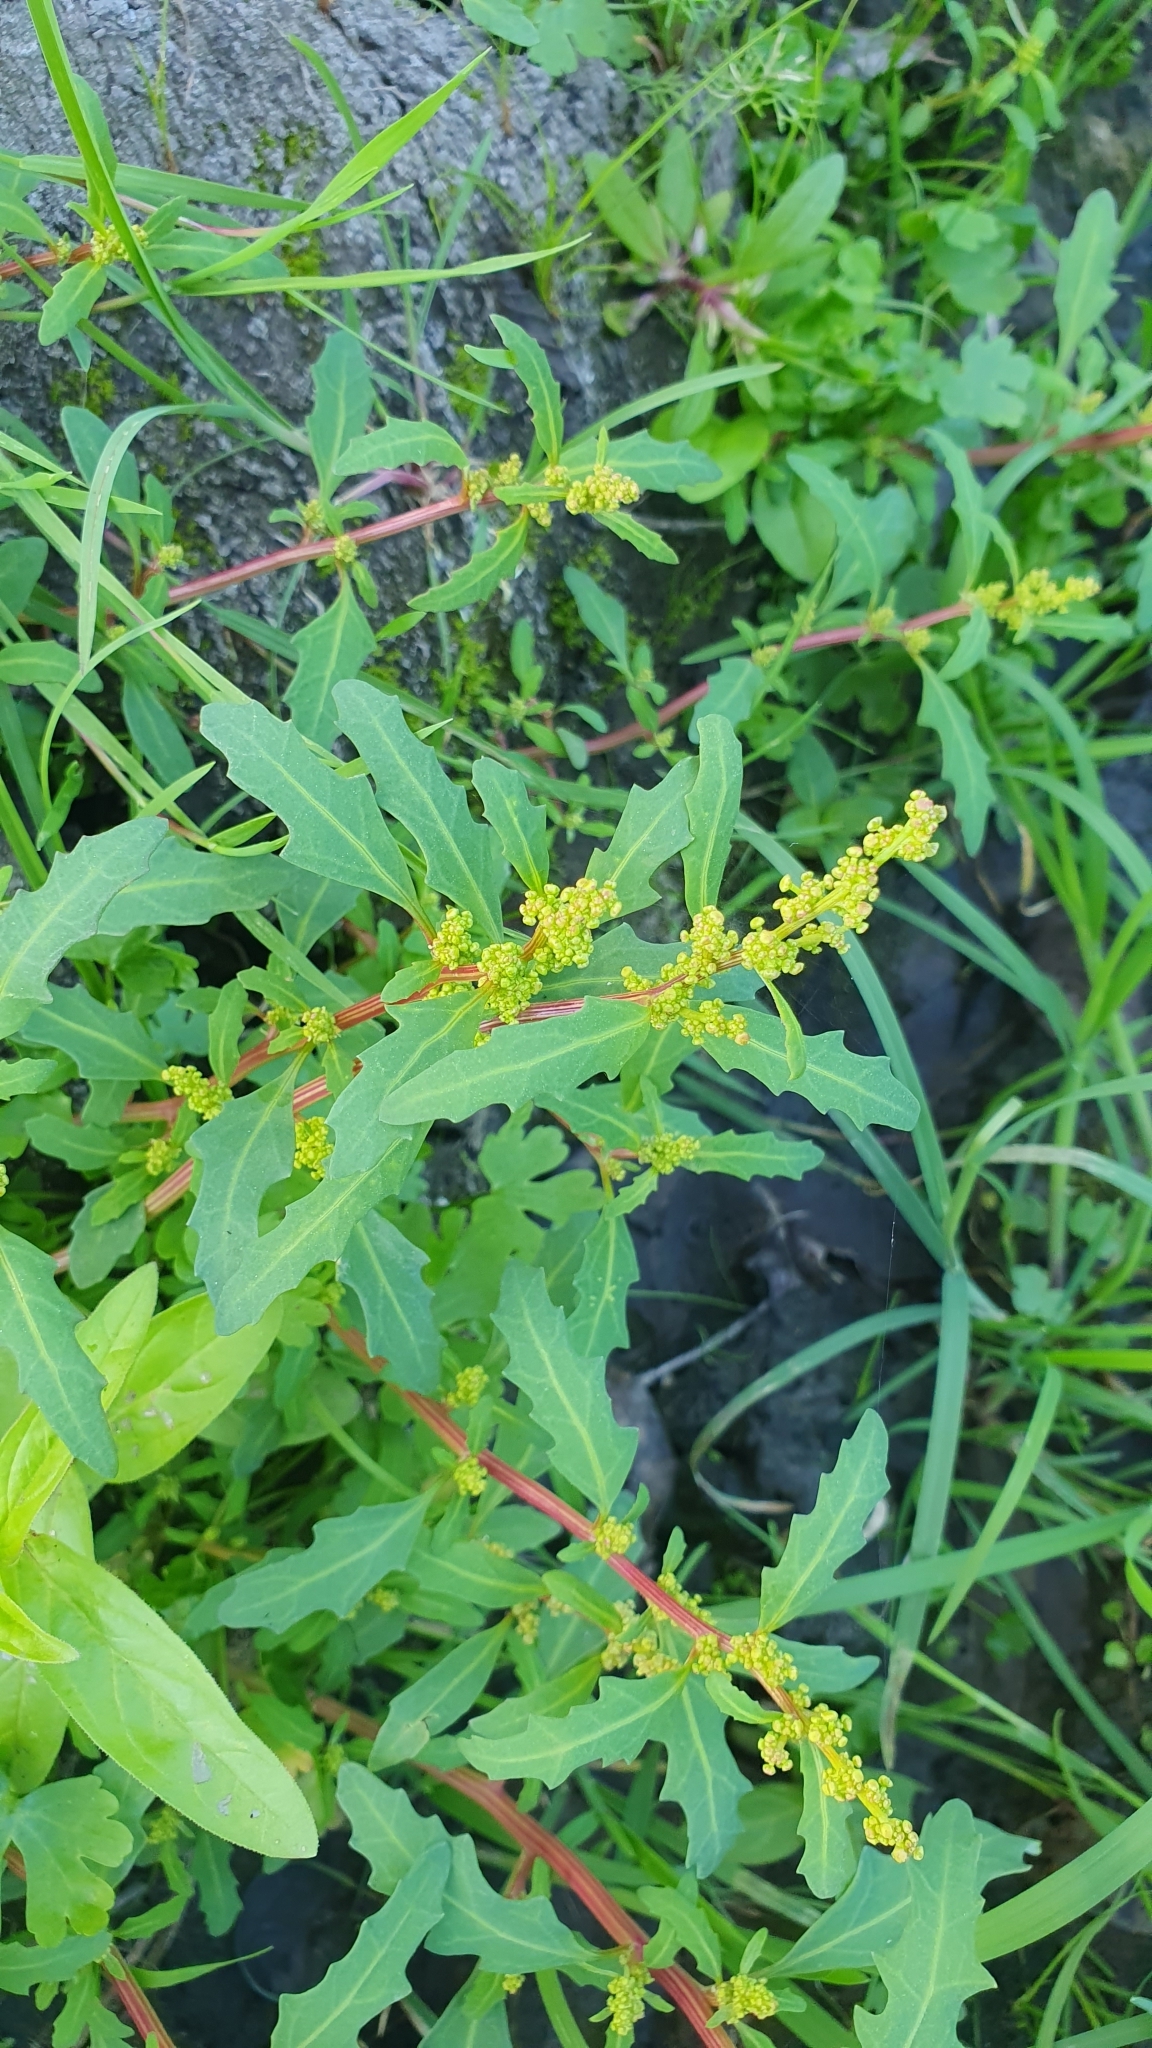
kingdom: Plantae
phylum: Tracheophyta
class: Magnoliopsida
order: Caryophyllales
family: Amaranthaceae
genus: Oxybasis
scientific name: Oxybasis glauca
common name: Glaucous goosefoot
